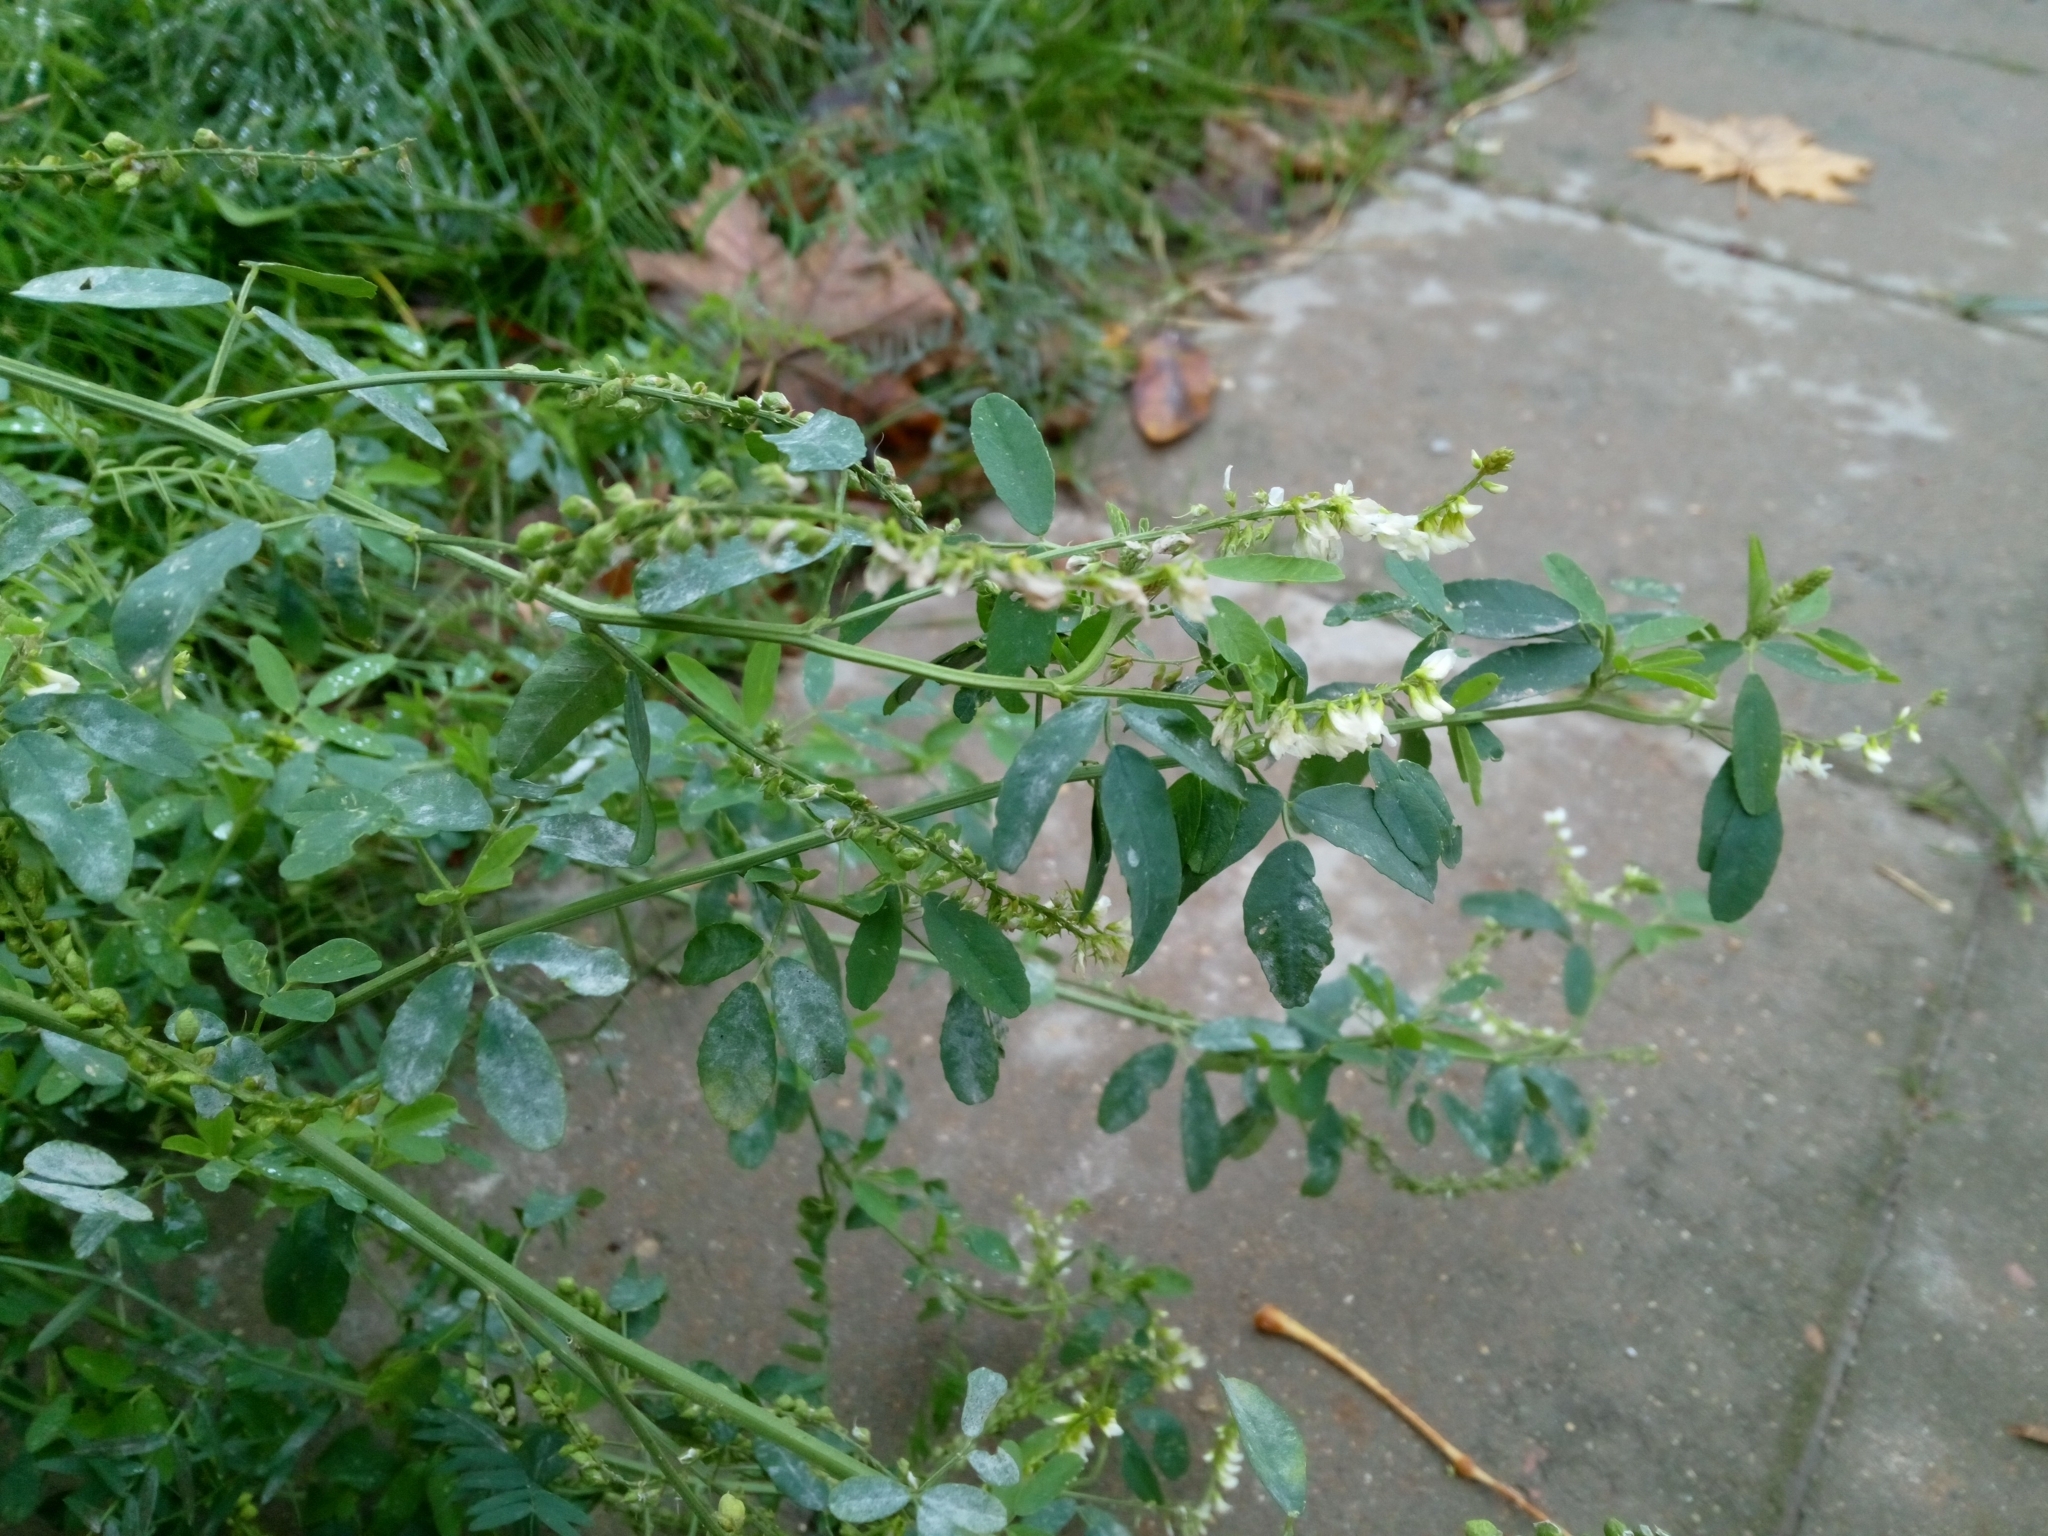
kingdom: Plantae
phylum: Tracheophyta
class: Magnoliopsida
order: Fabales
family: Fabaceae
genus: Melilotus
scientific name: Melilotus albus
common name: White melilot
